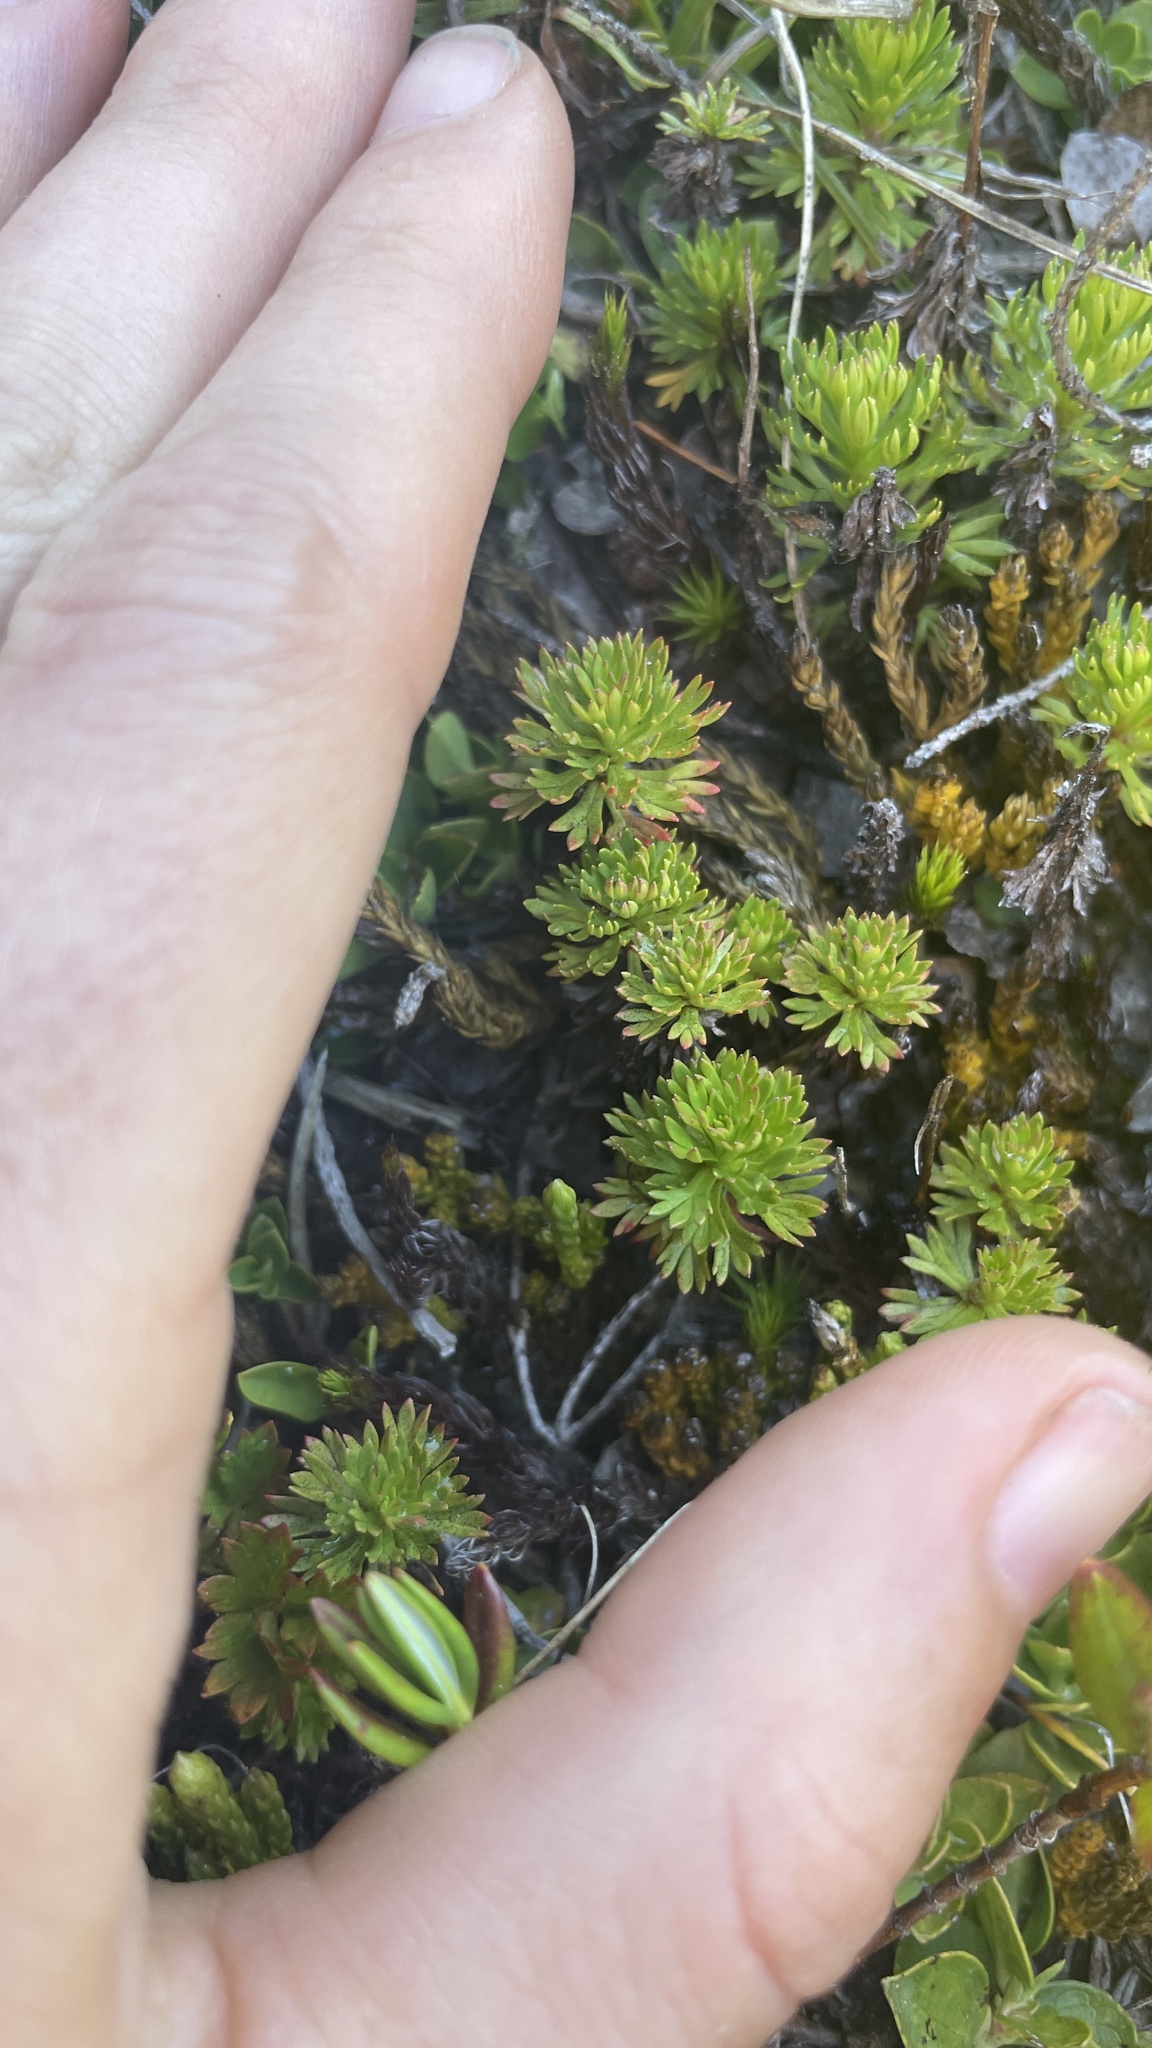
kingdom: Plantae
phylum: Tracheophyta
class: Magnoliopsida
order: Rosales
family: Rosaceae
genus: Luetkea
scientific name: Luetkea pectinata
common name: Partridgefoot
